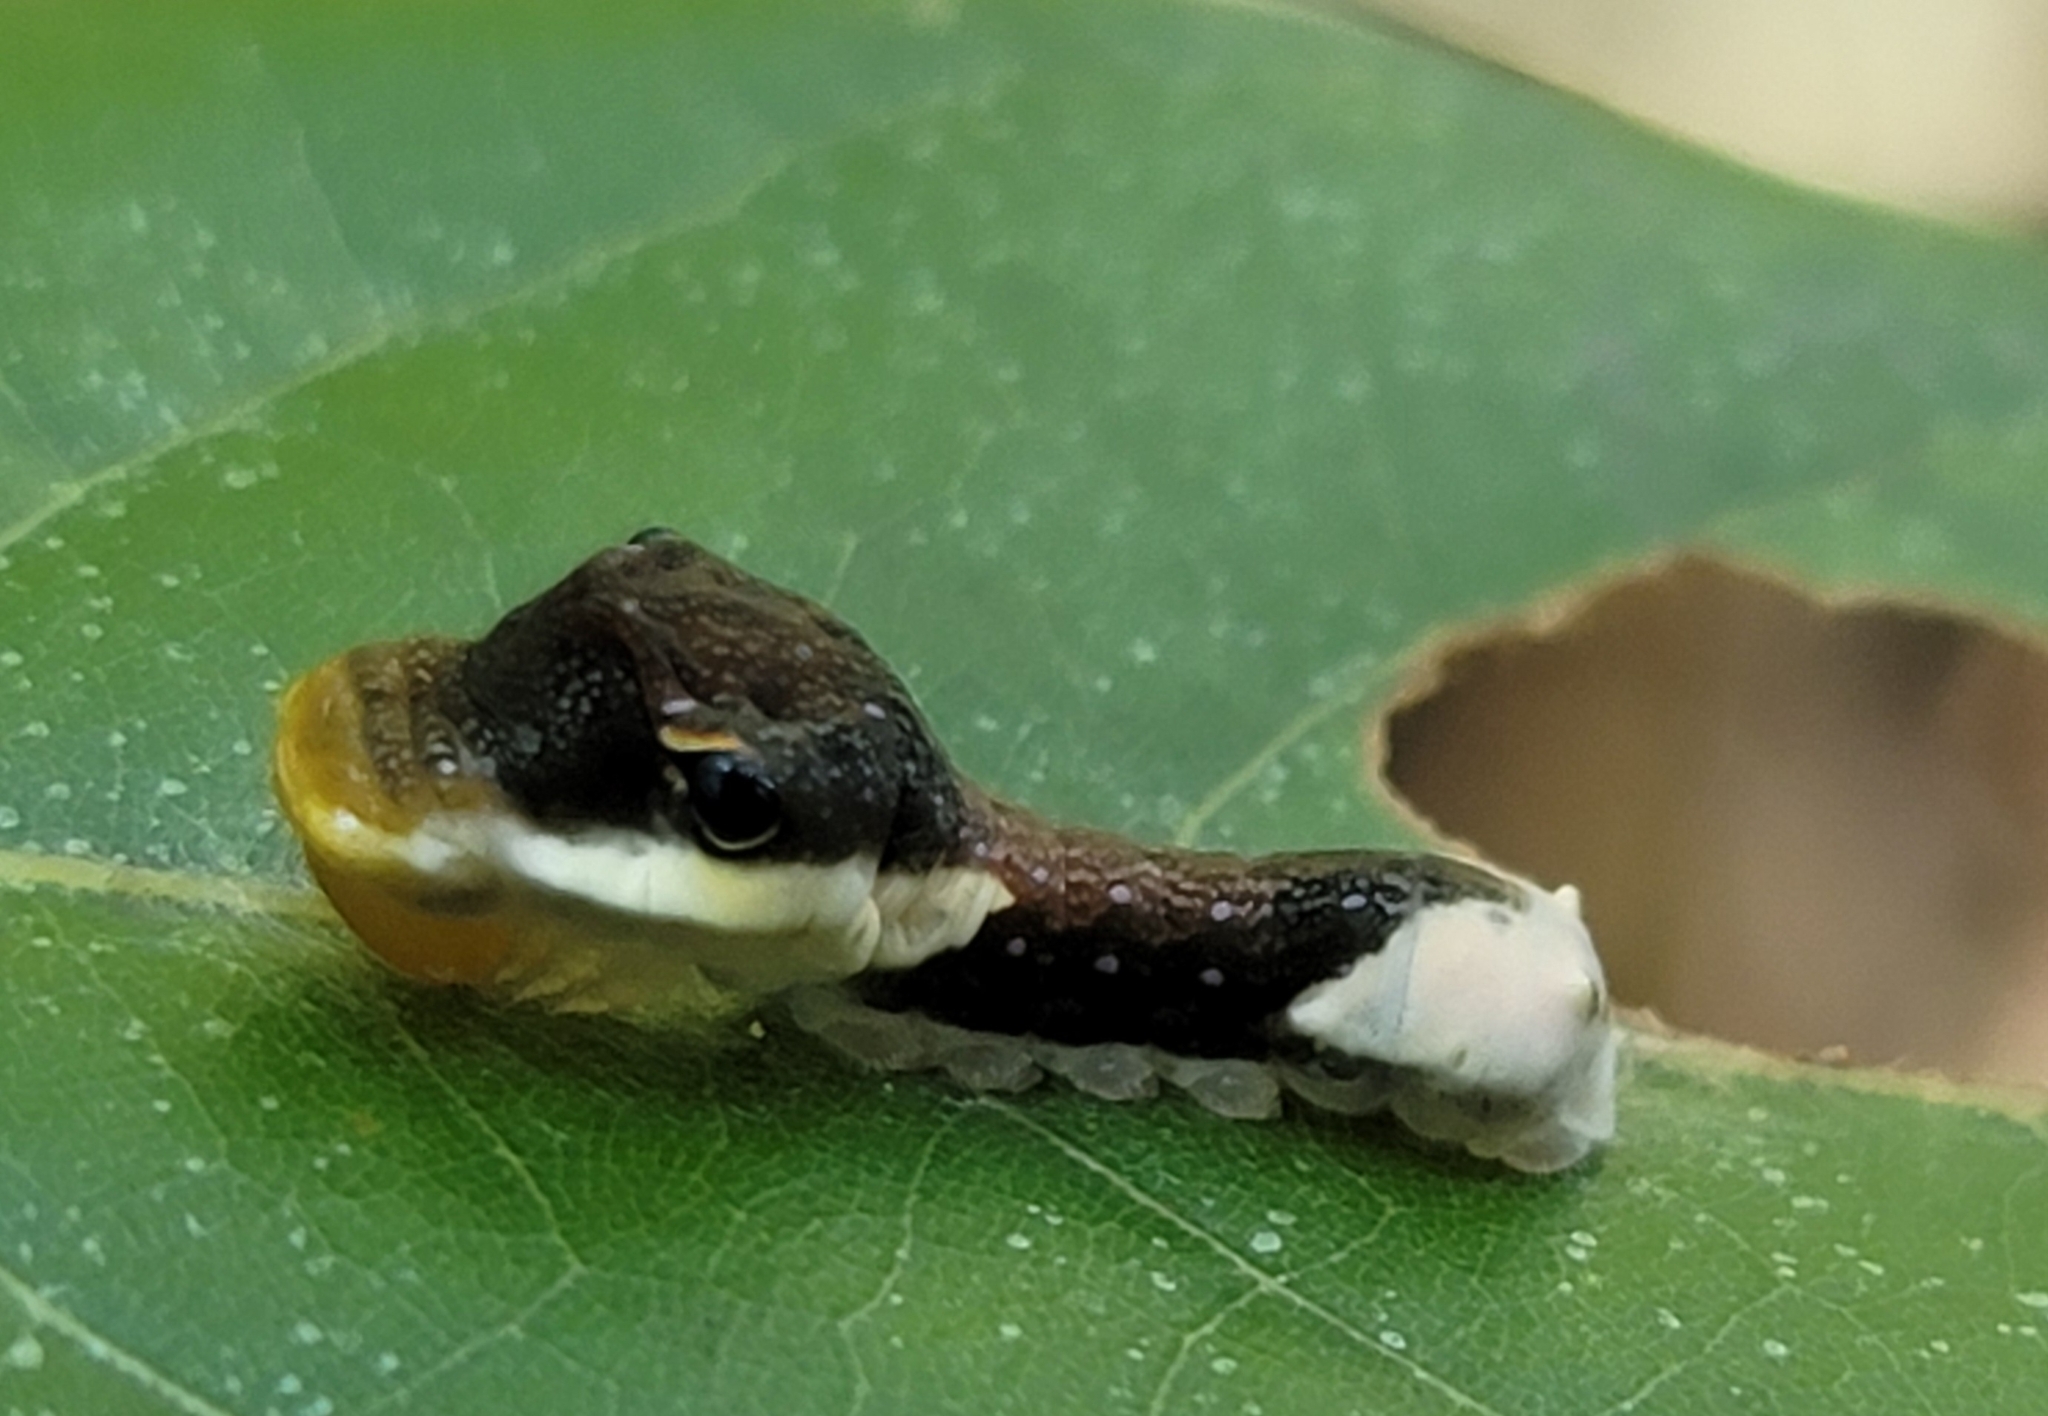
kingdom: Animalia
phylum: Arthropoda
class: Insecta
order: Lepidoptera
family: Papilionidae
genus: Papilio
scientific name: Papilio palamedes
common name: Palamedes swallowtail
